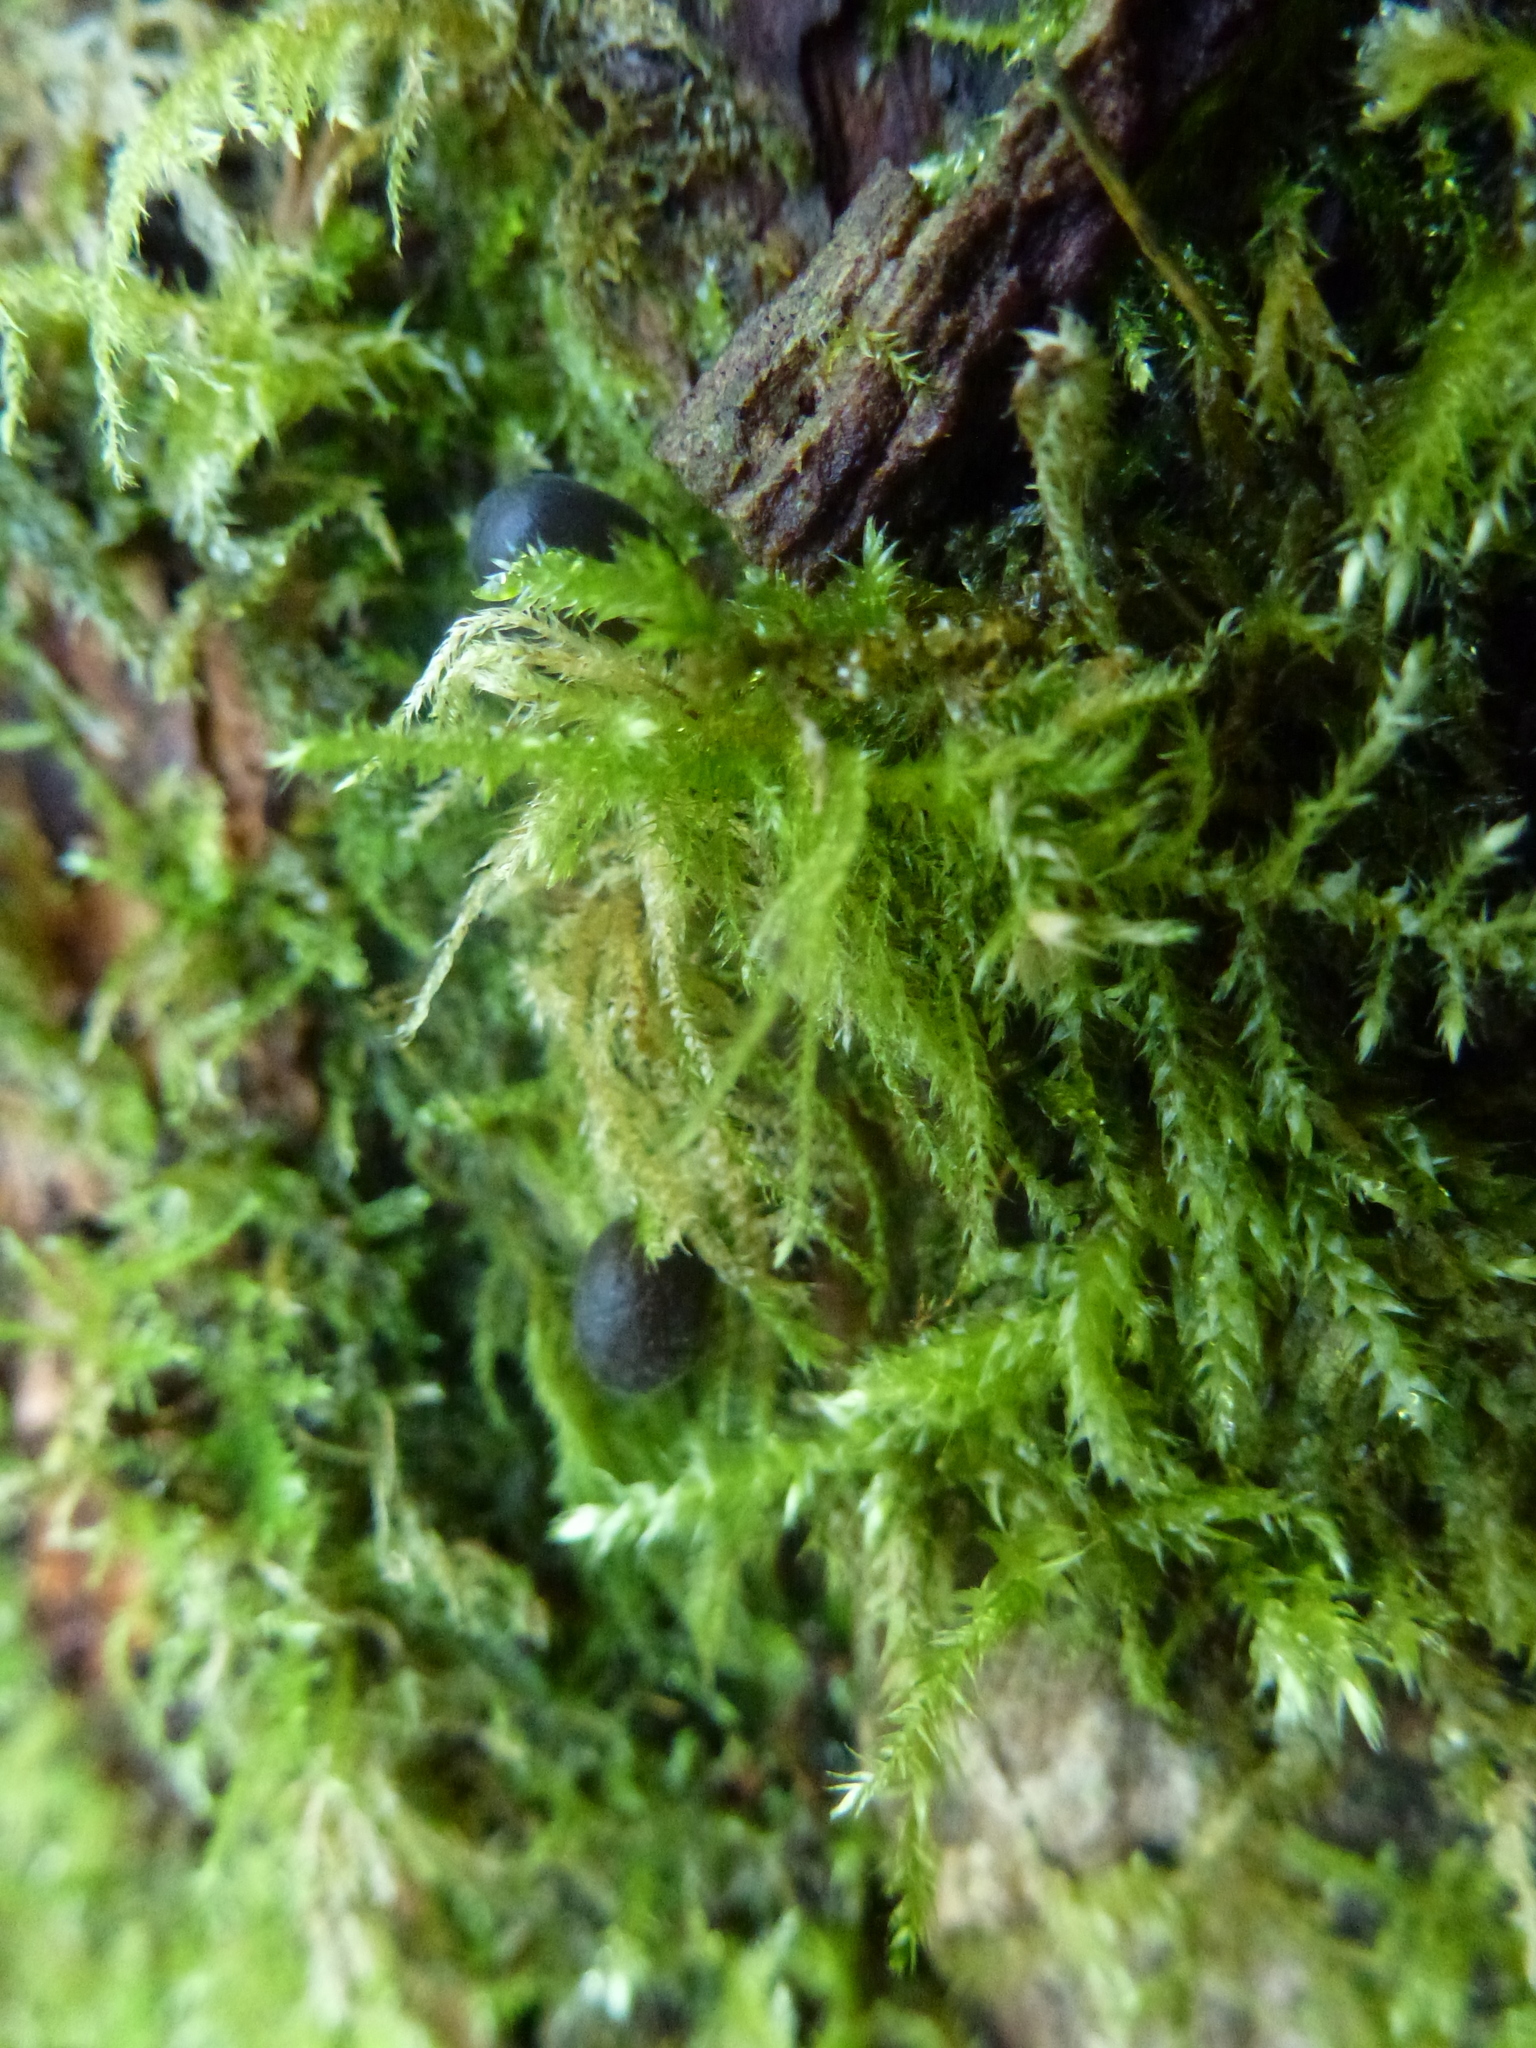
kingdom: Plantae
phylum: Bryophyta
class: Bryopsida
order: Hypnales
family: Brachytheciaceae
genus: Kindbergia
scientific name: Kindbergia praelonga
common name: Slender beaked moss
